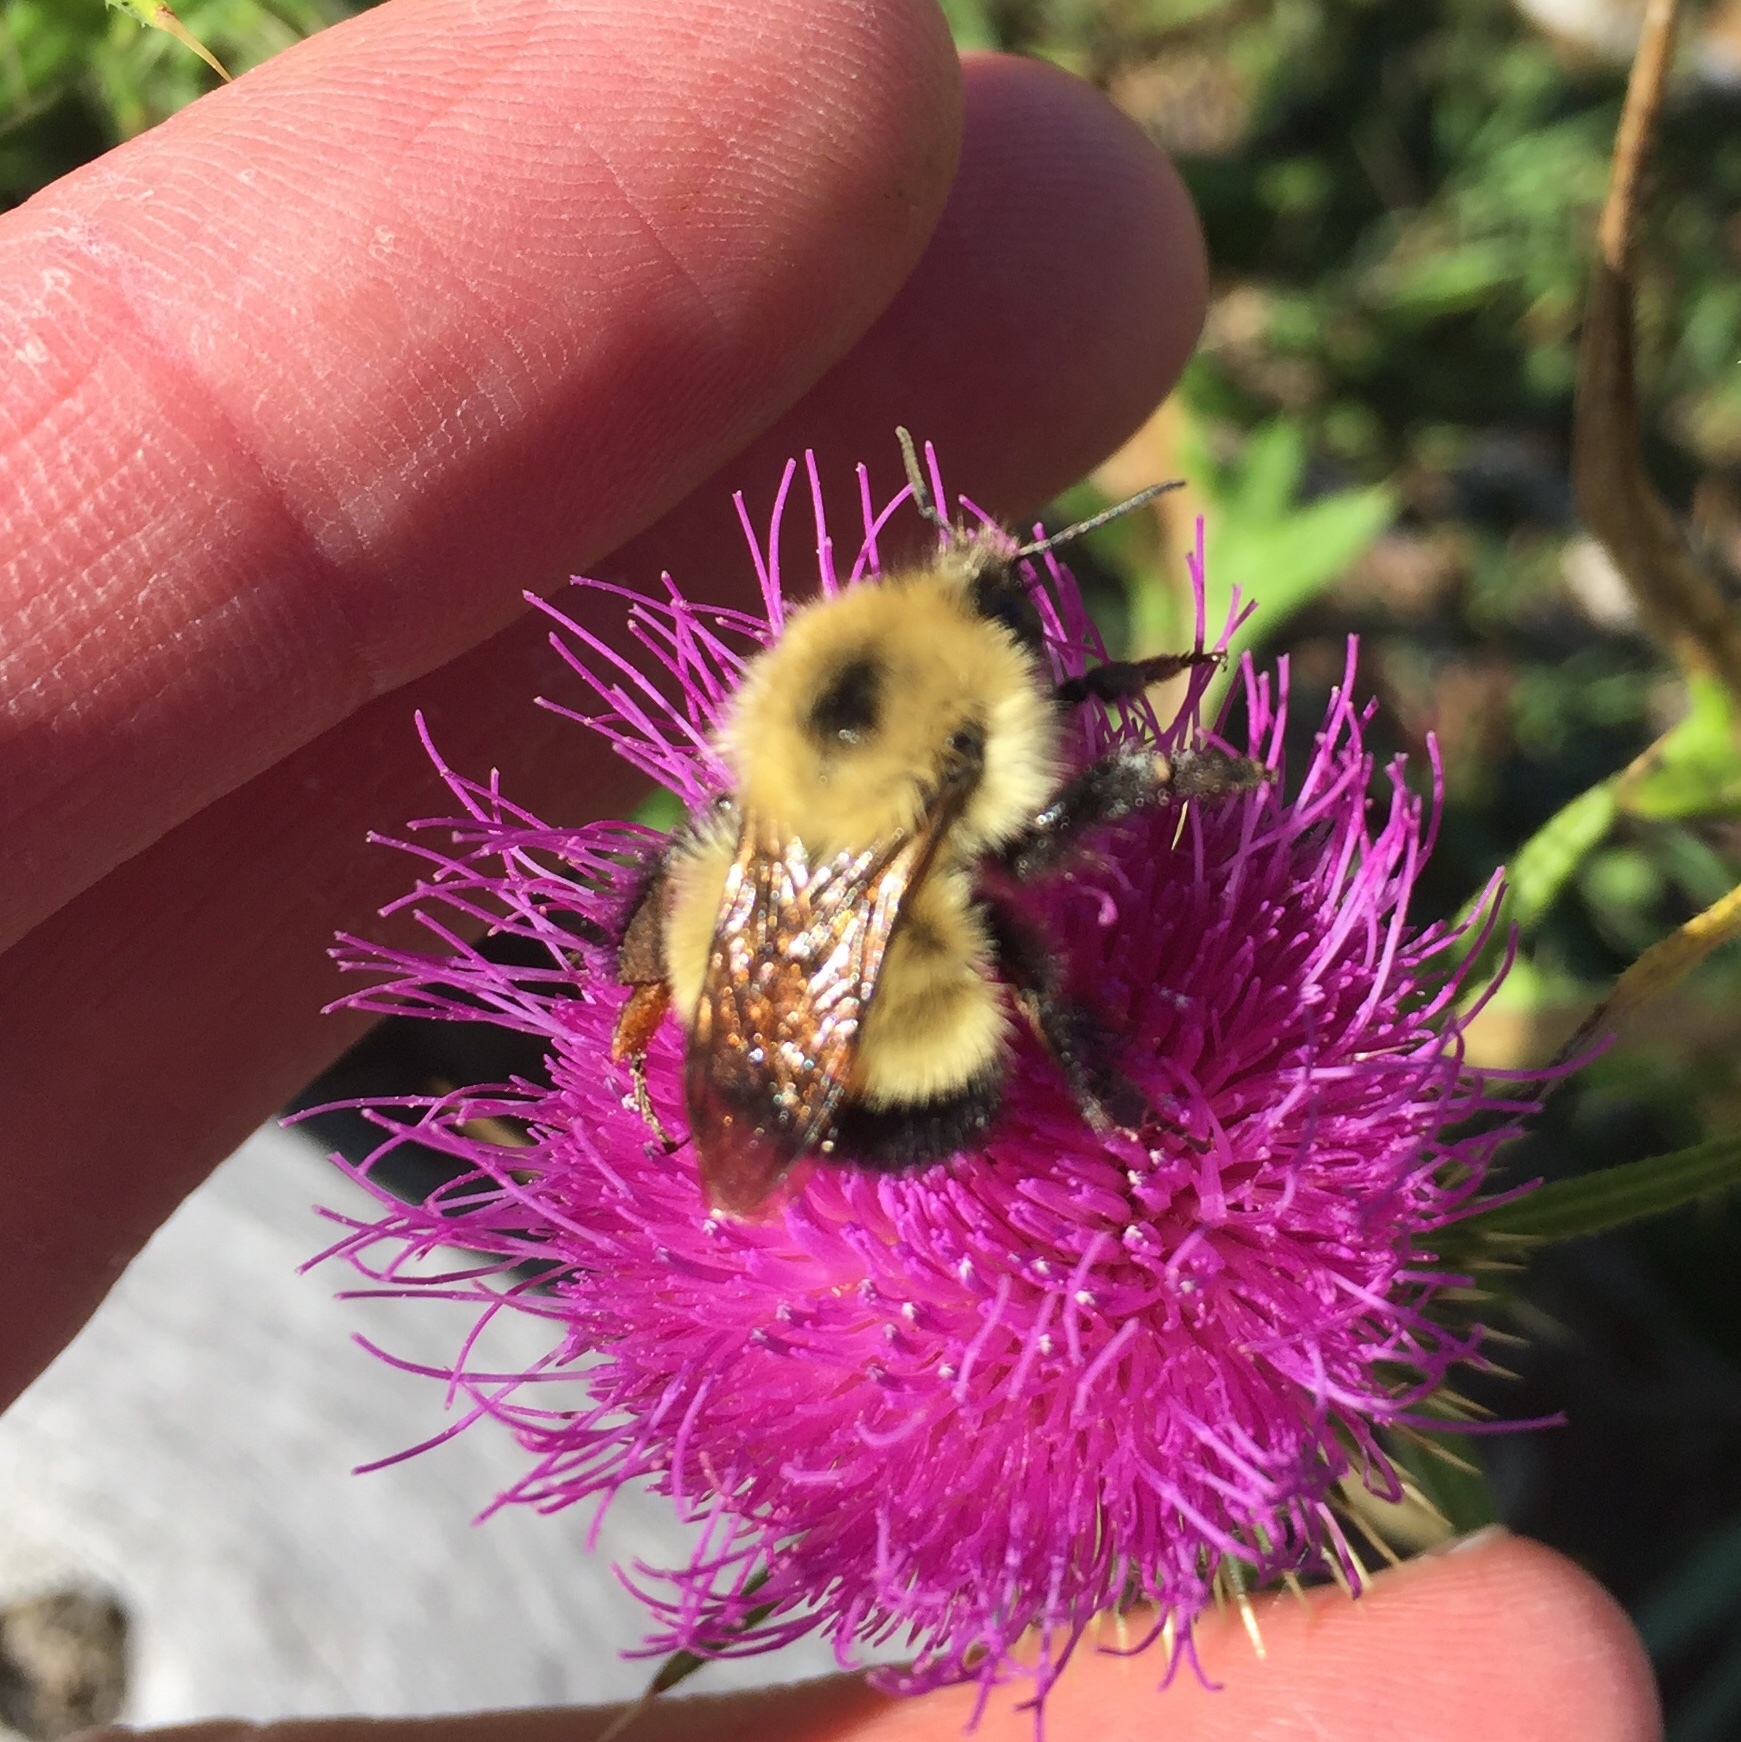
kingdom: Animalia
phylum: Arthropoda
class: Insecta
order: Hymenoptera
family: Apidae
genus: Pyrobombus
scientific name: Pyrobombus
